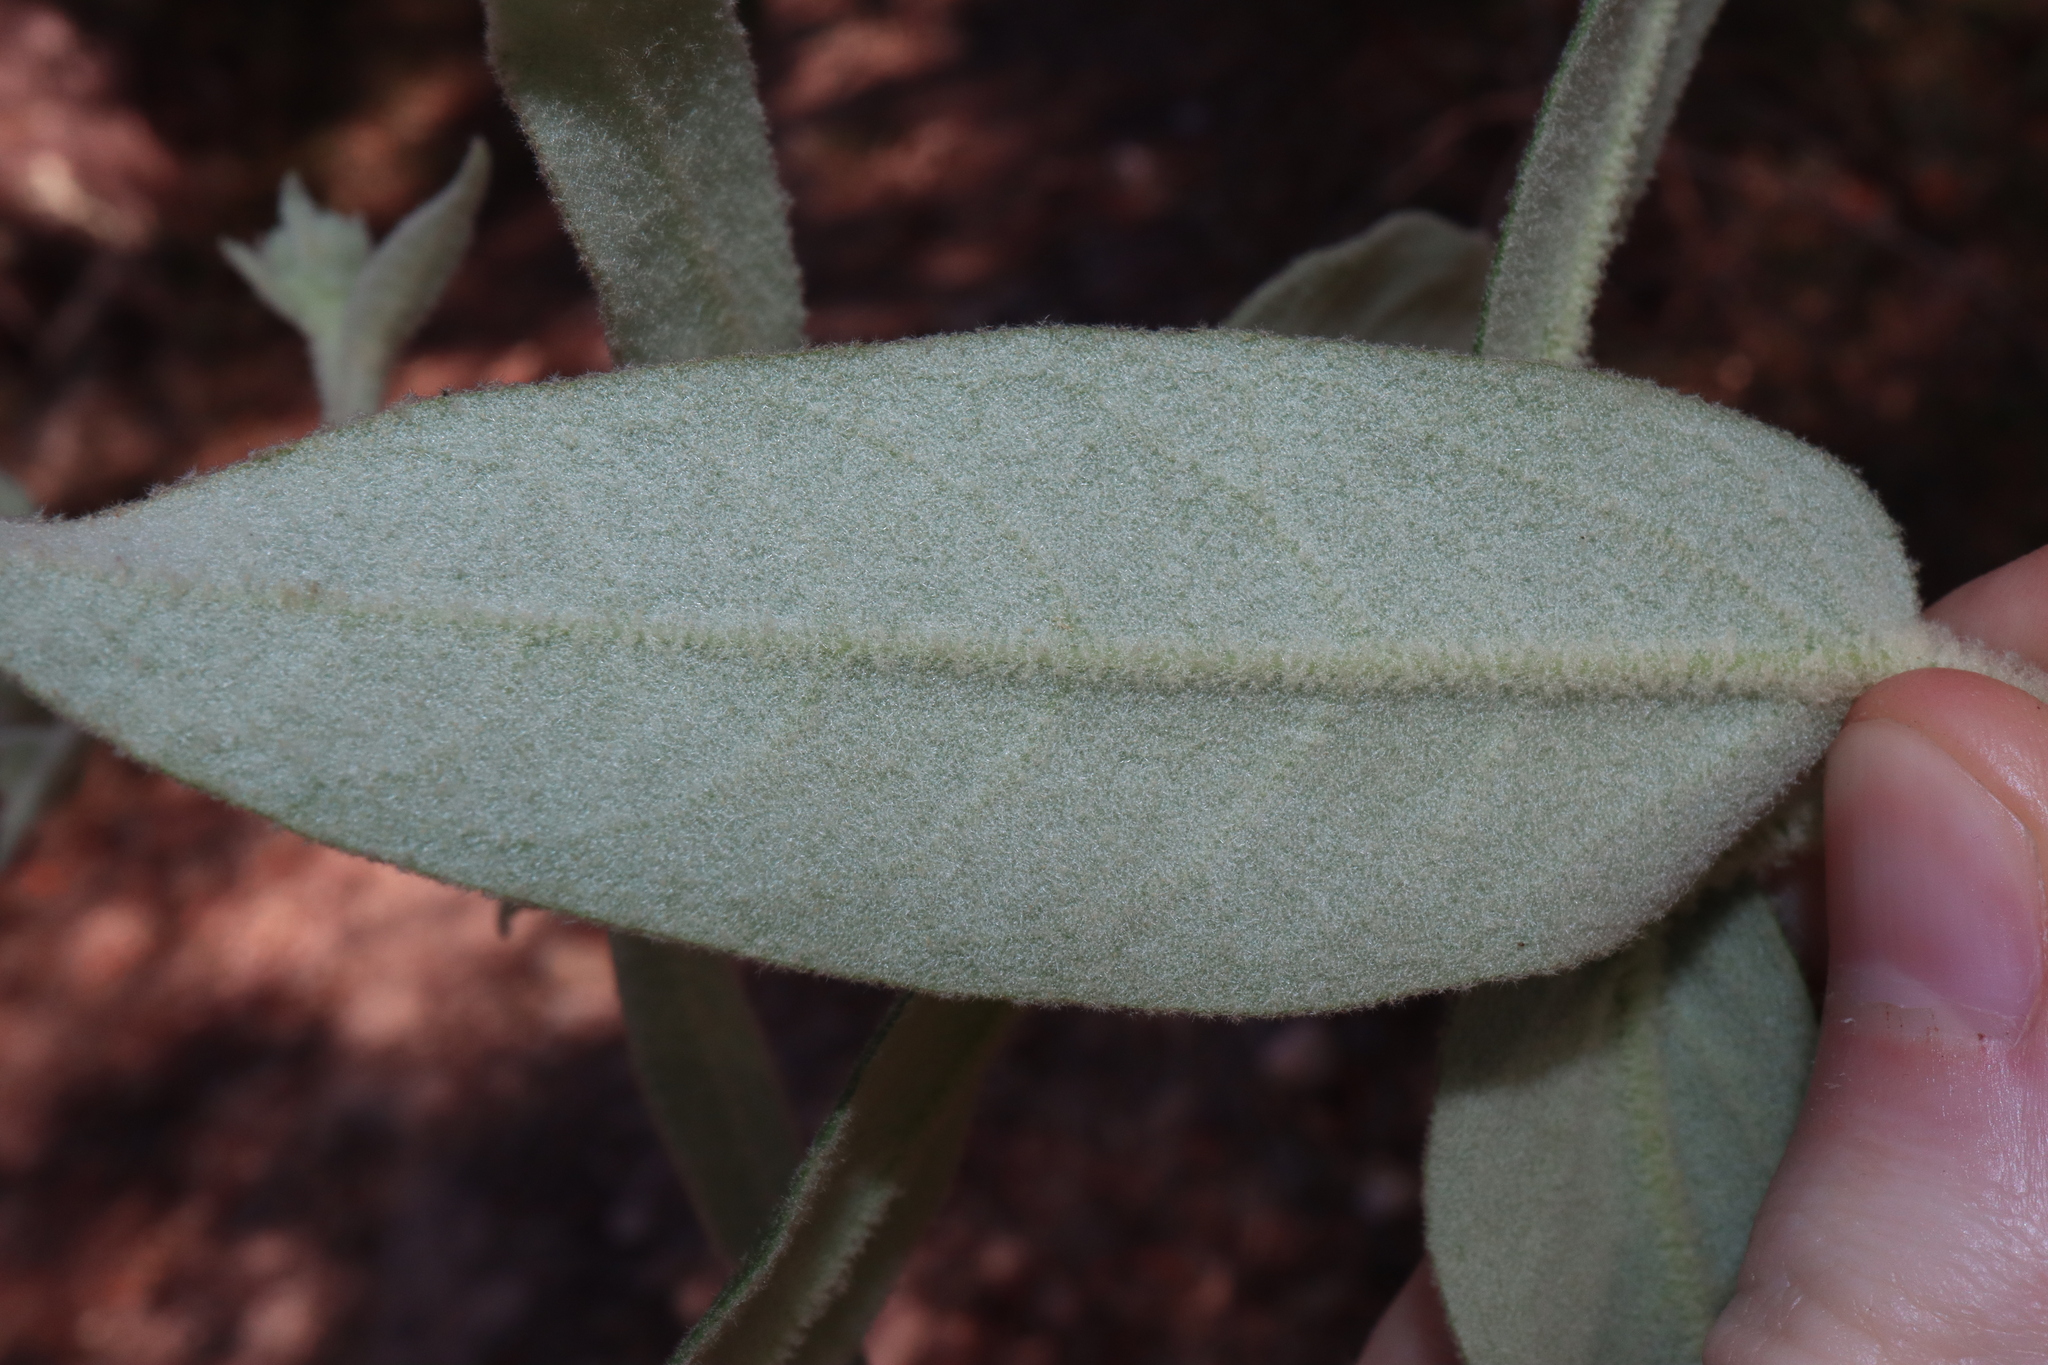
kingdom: Plantae
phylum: Tracheophyta
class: Magnoliopsida
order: Apiales
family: Araliaceae
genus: Astrotricha
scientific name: Astrotricha floccosa
